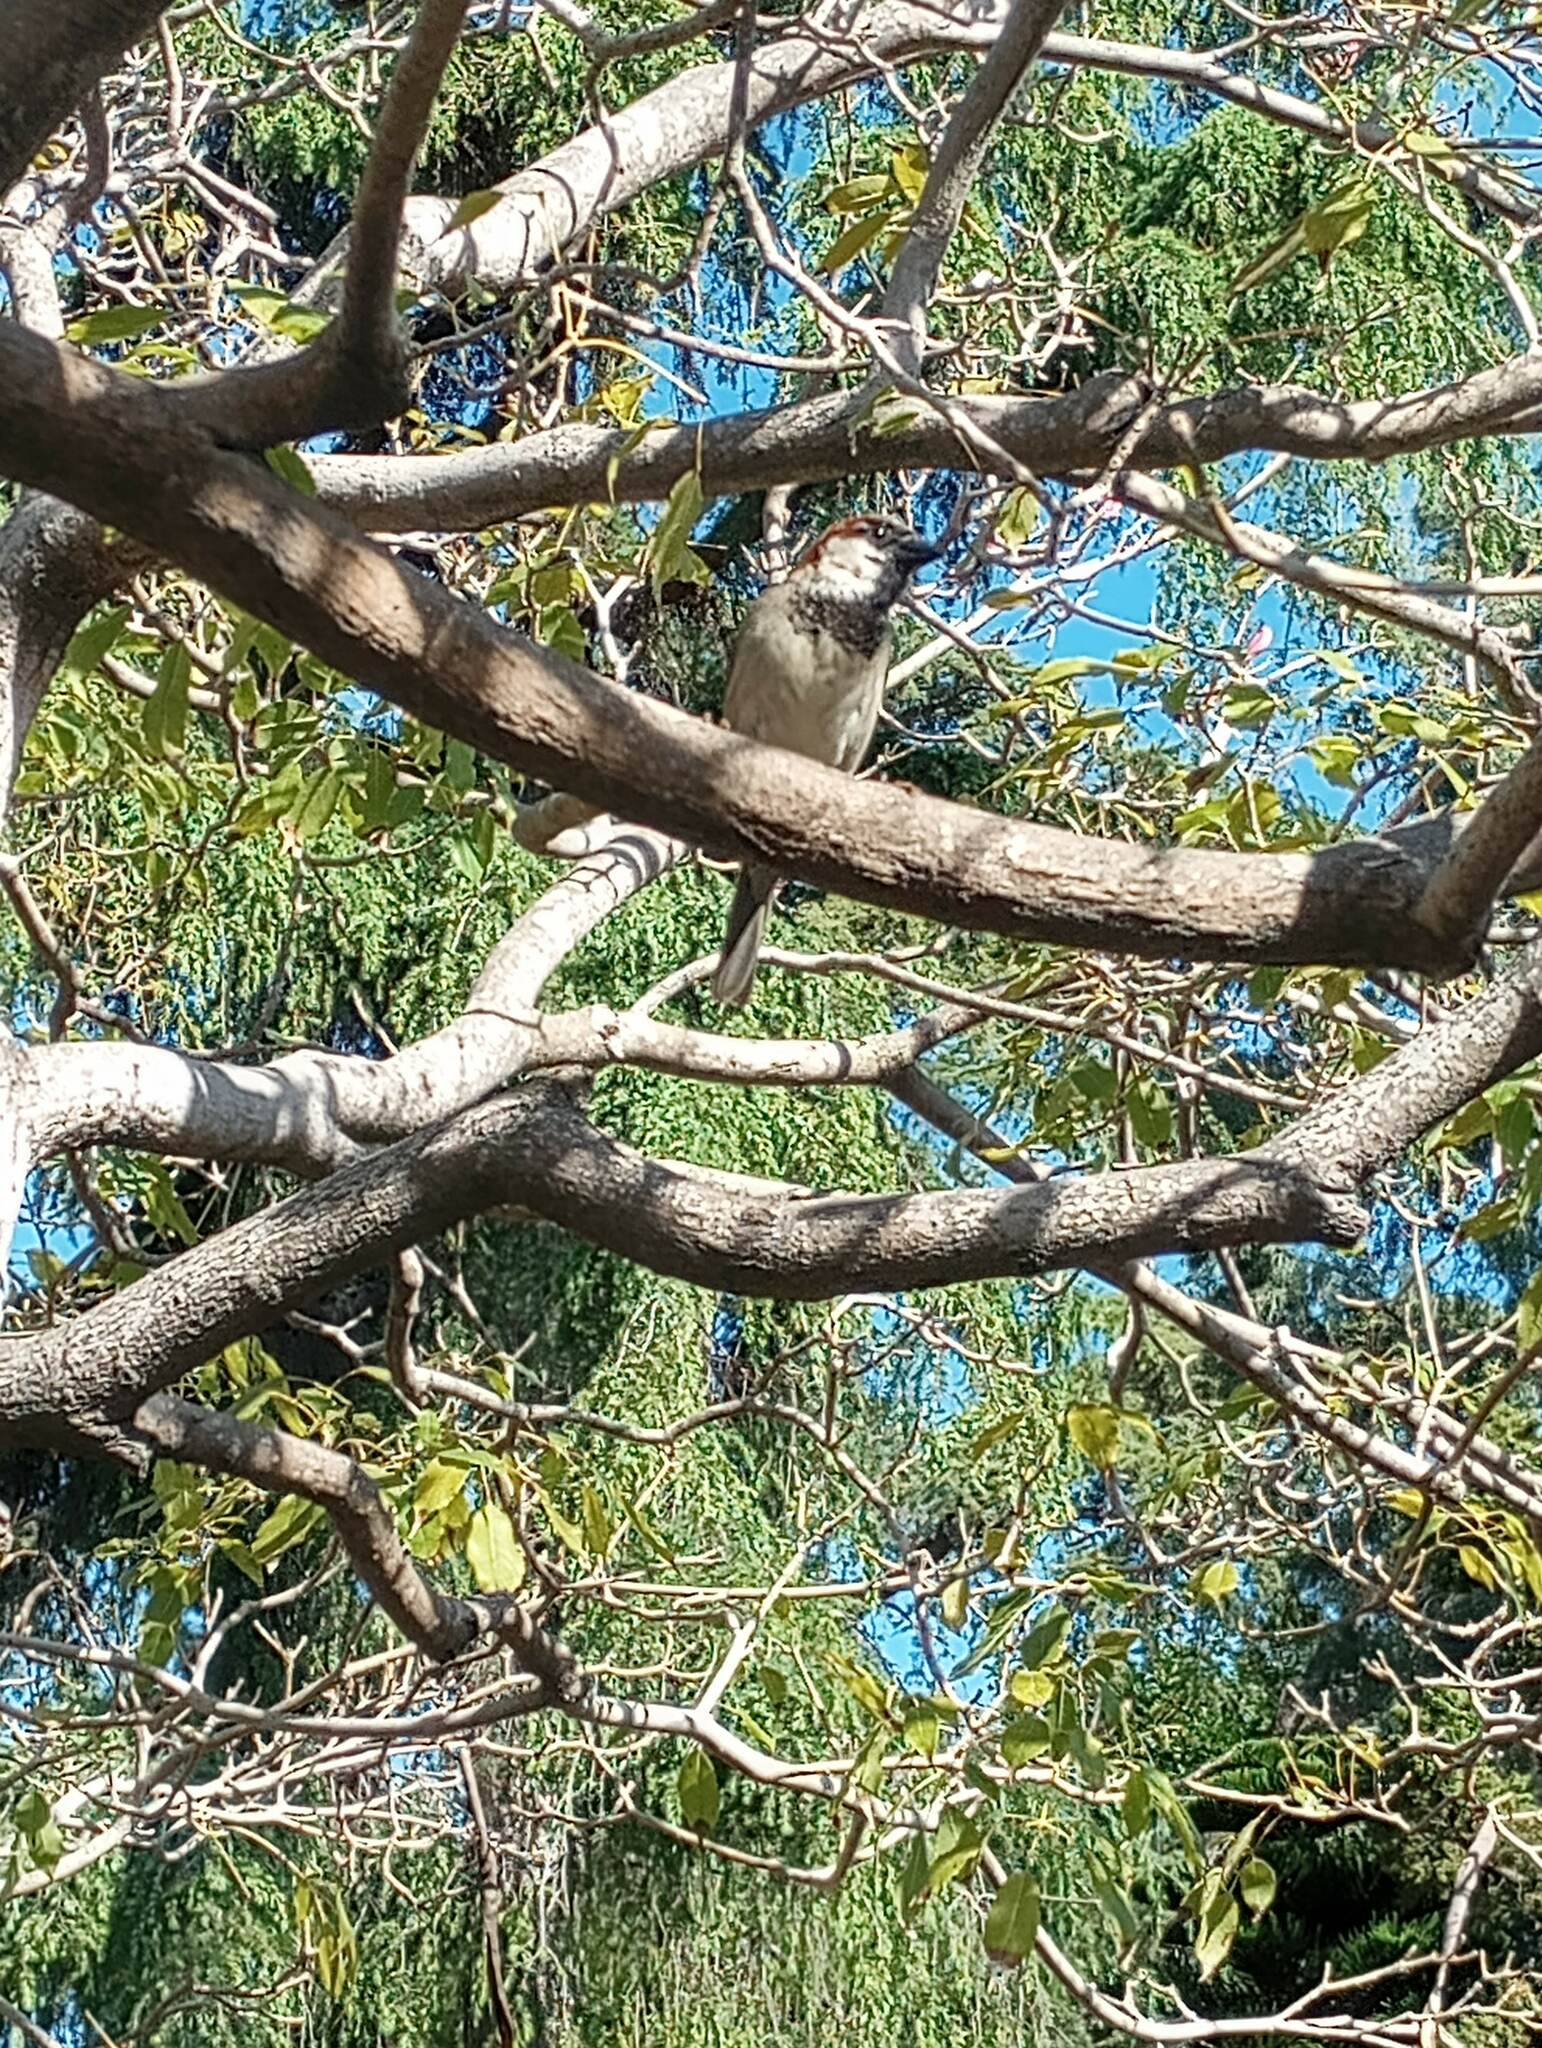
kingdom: Animalia
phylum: Chordata
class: Aves
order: Passeriformes
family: Passeridae
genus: Passer
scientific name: Passer domesticus
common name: House sparrow
